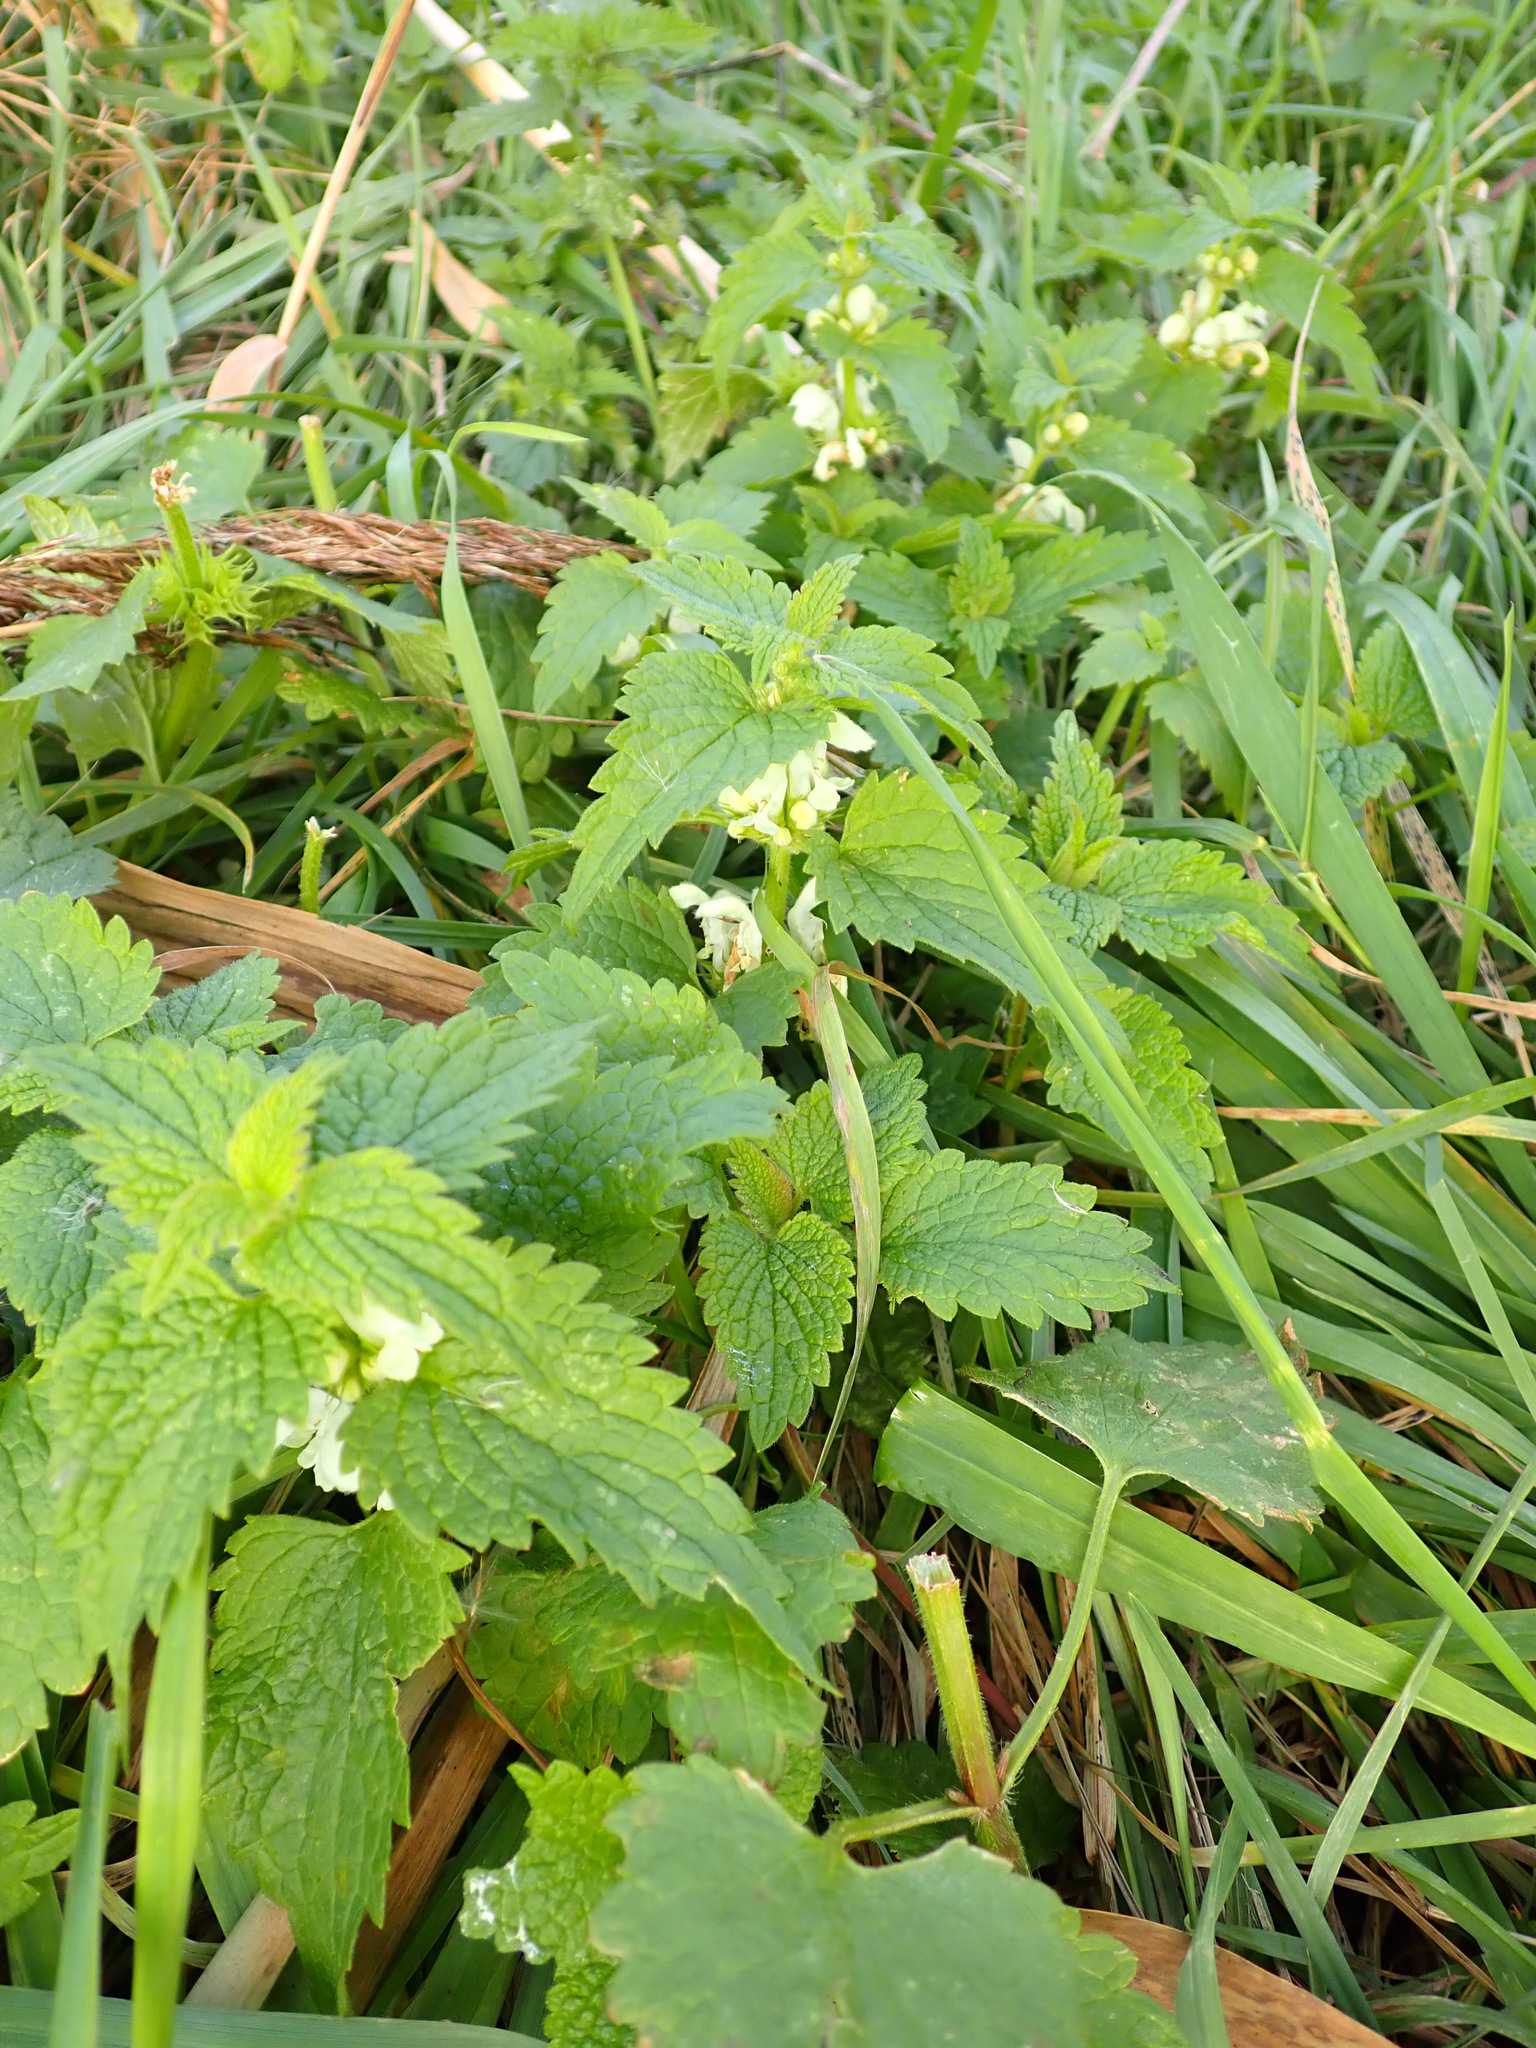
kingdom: Plantae
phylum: Tracheophyta
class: Magnoliopsida
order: Lamiales
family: Lamiaceae
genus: Lamium
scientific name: Lamium album
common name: White dead-nettle
